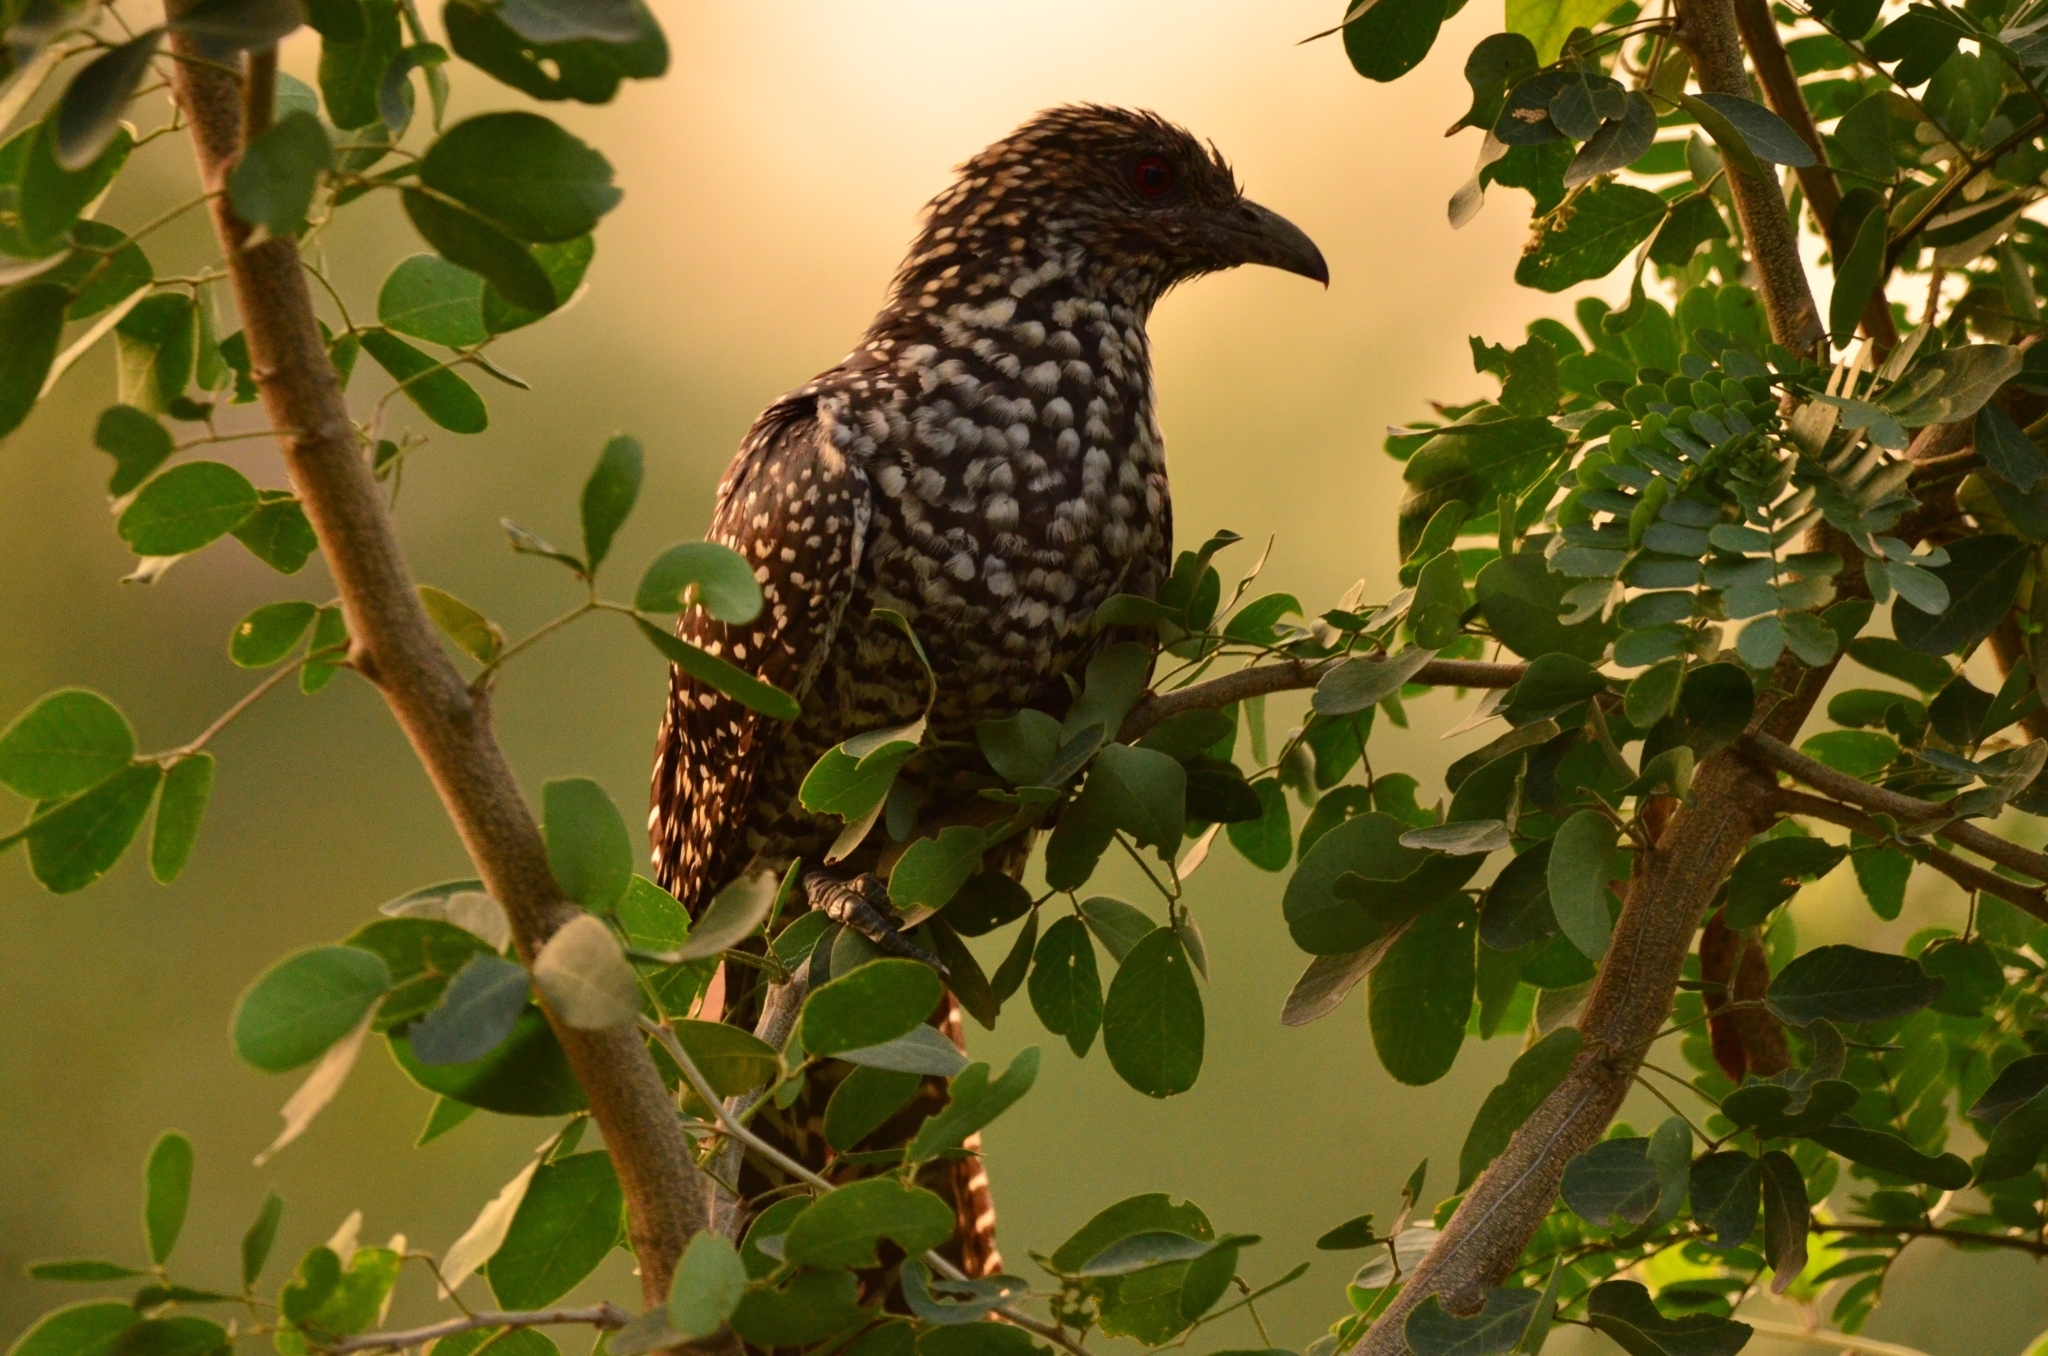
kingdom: Animalia
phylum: Chordata
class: Aves
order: Cuculiformes
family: Cuculidae
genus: Eudynamys
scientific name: Eudynamys scolopaceus
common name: Asian koel
